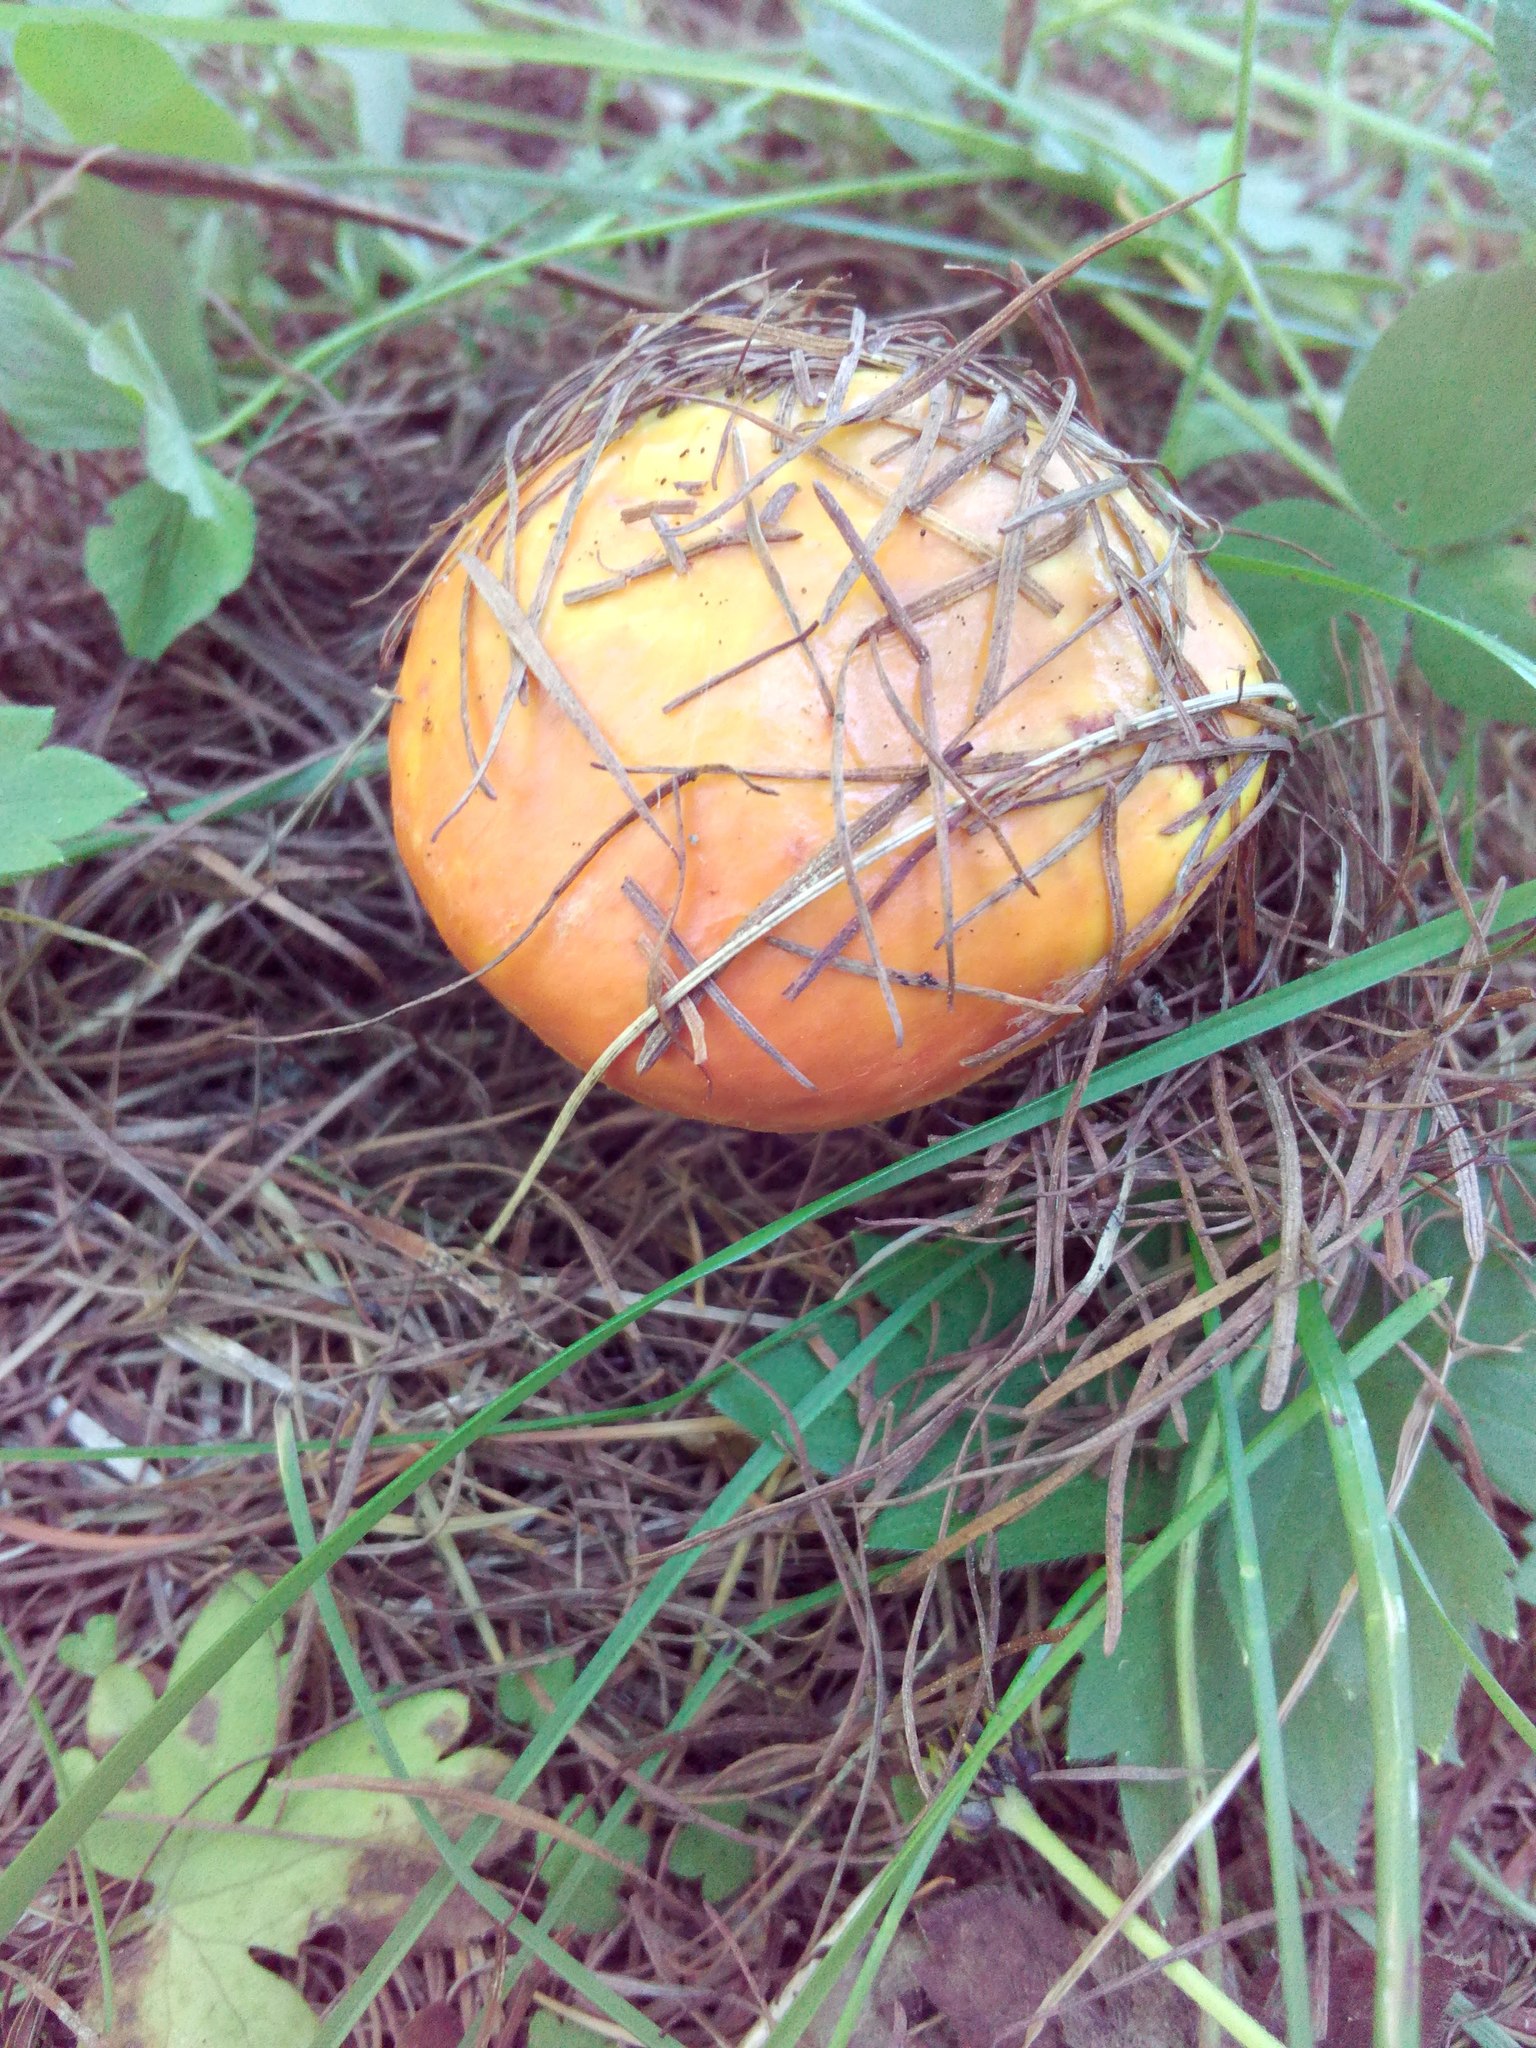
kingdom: Fungi
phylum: Basidiomycota
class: Agaricomycetes
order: Boletales
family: Suillaceae
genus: Suillus
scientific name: Suillus grevillei
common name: Larch bolete
